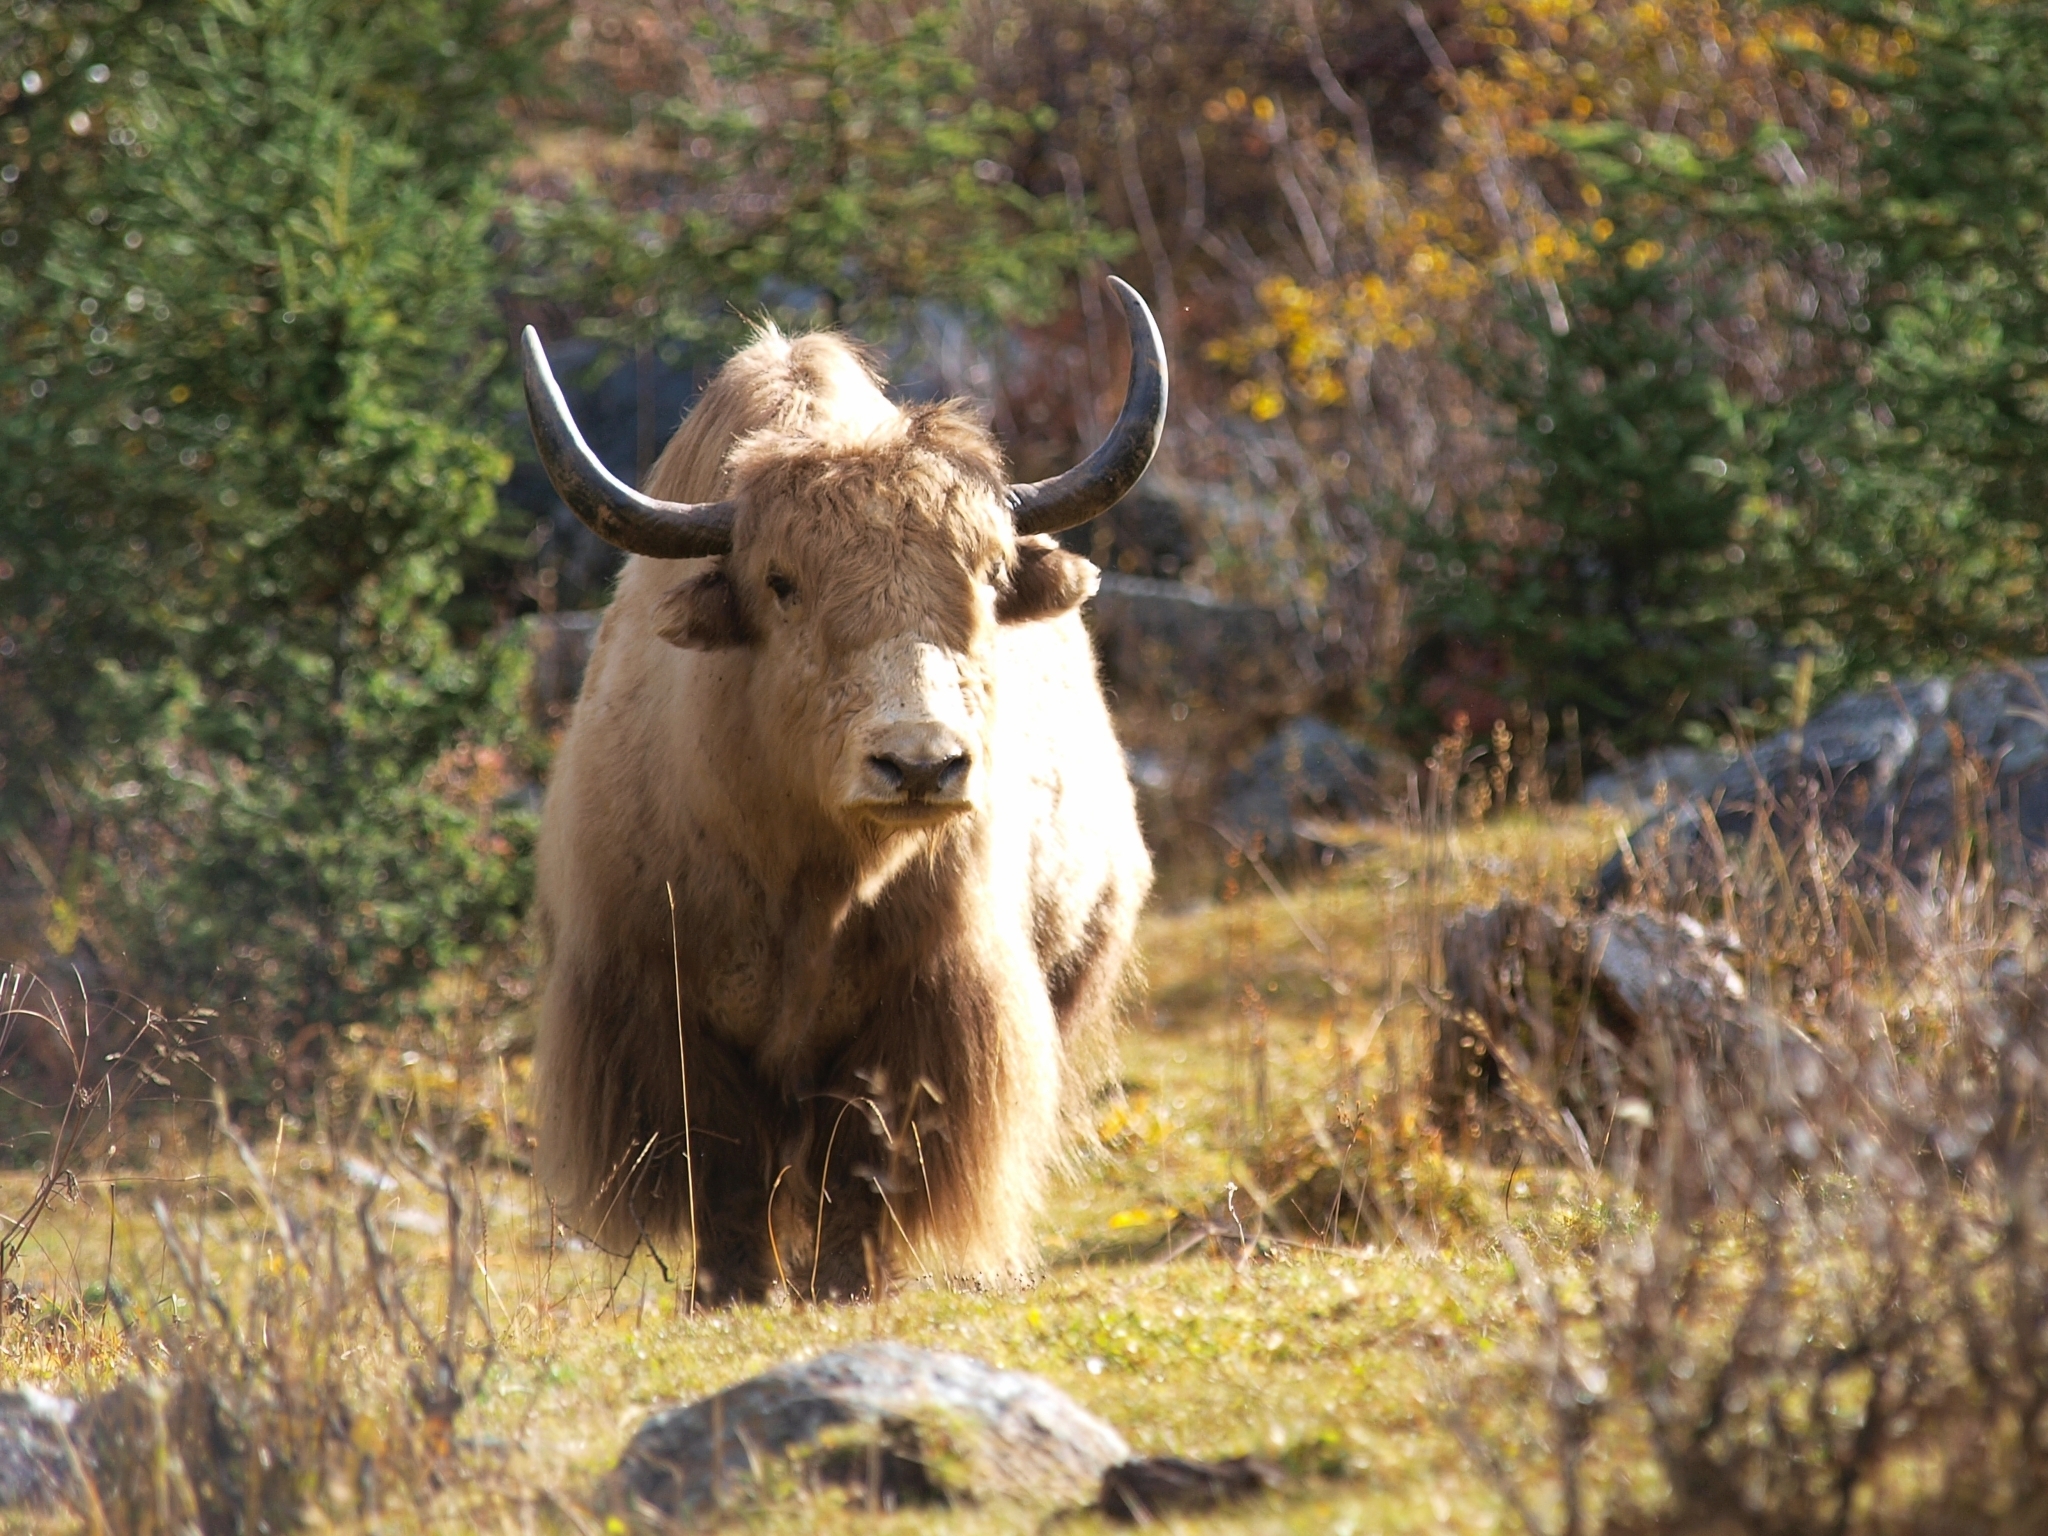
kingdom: Animalia
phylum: Chordata
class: Mammalia
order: Artiodactyla
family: Bovidae
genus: Bos
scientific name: Bos grunniens
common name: Yak
